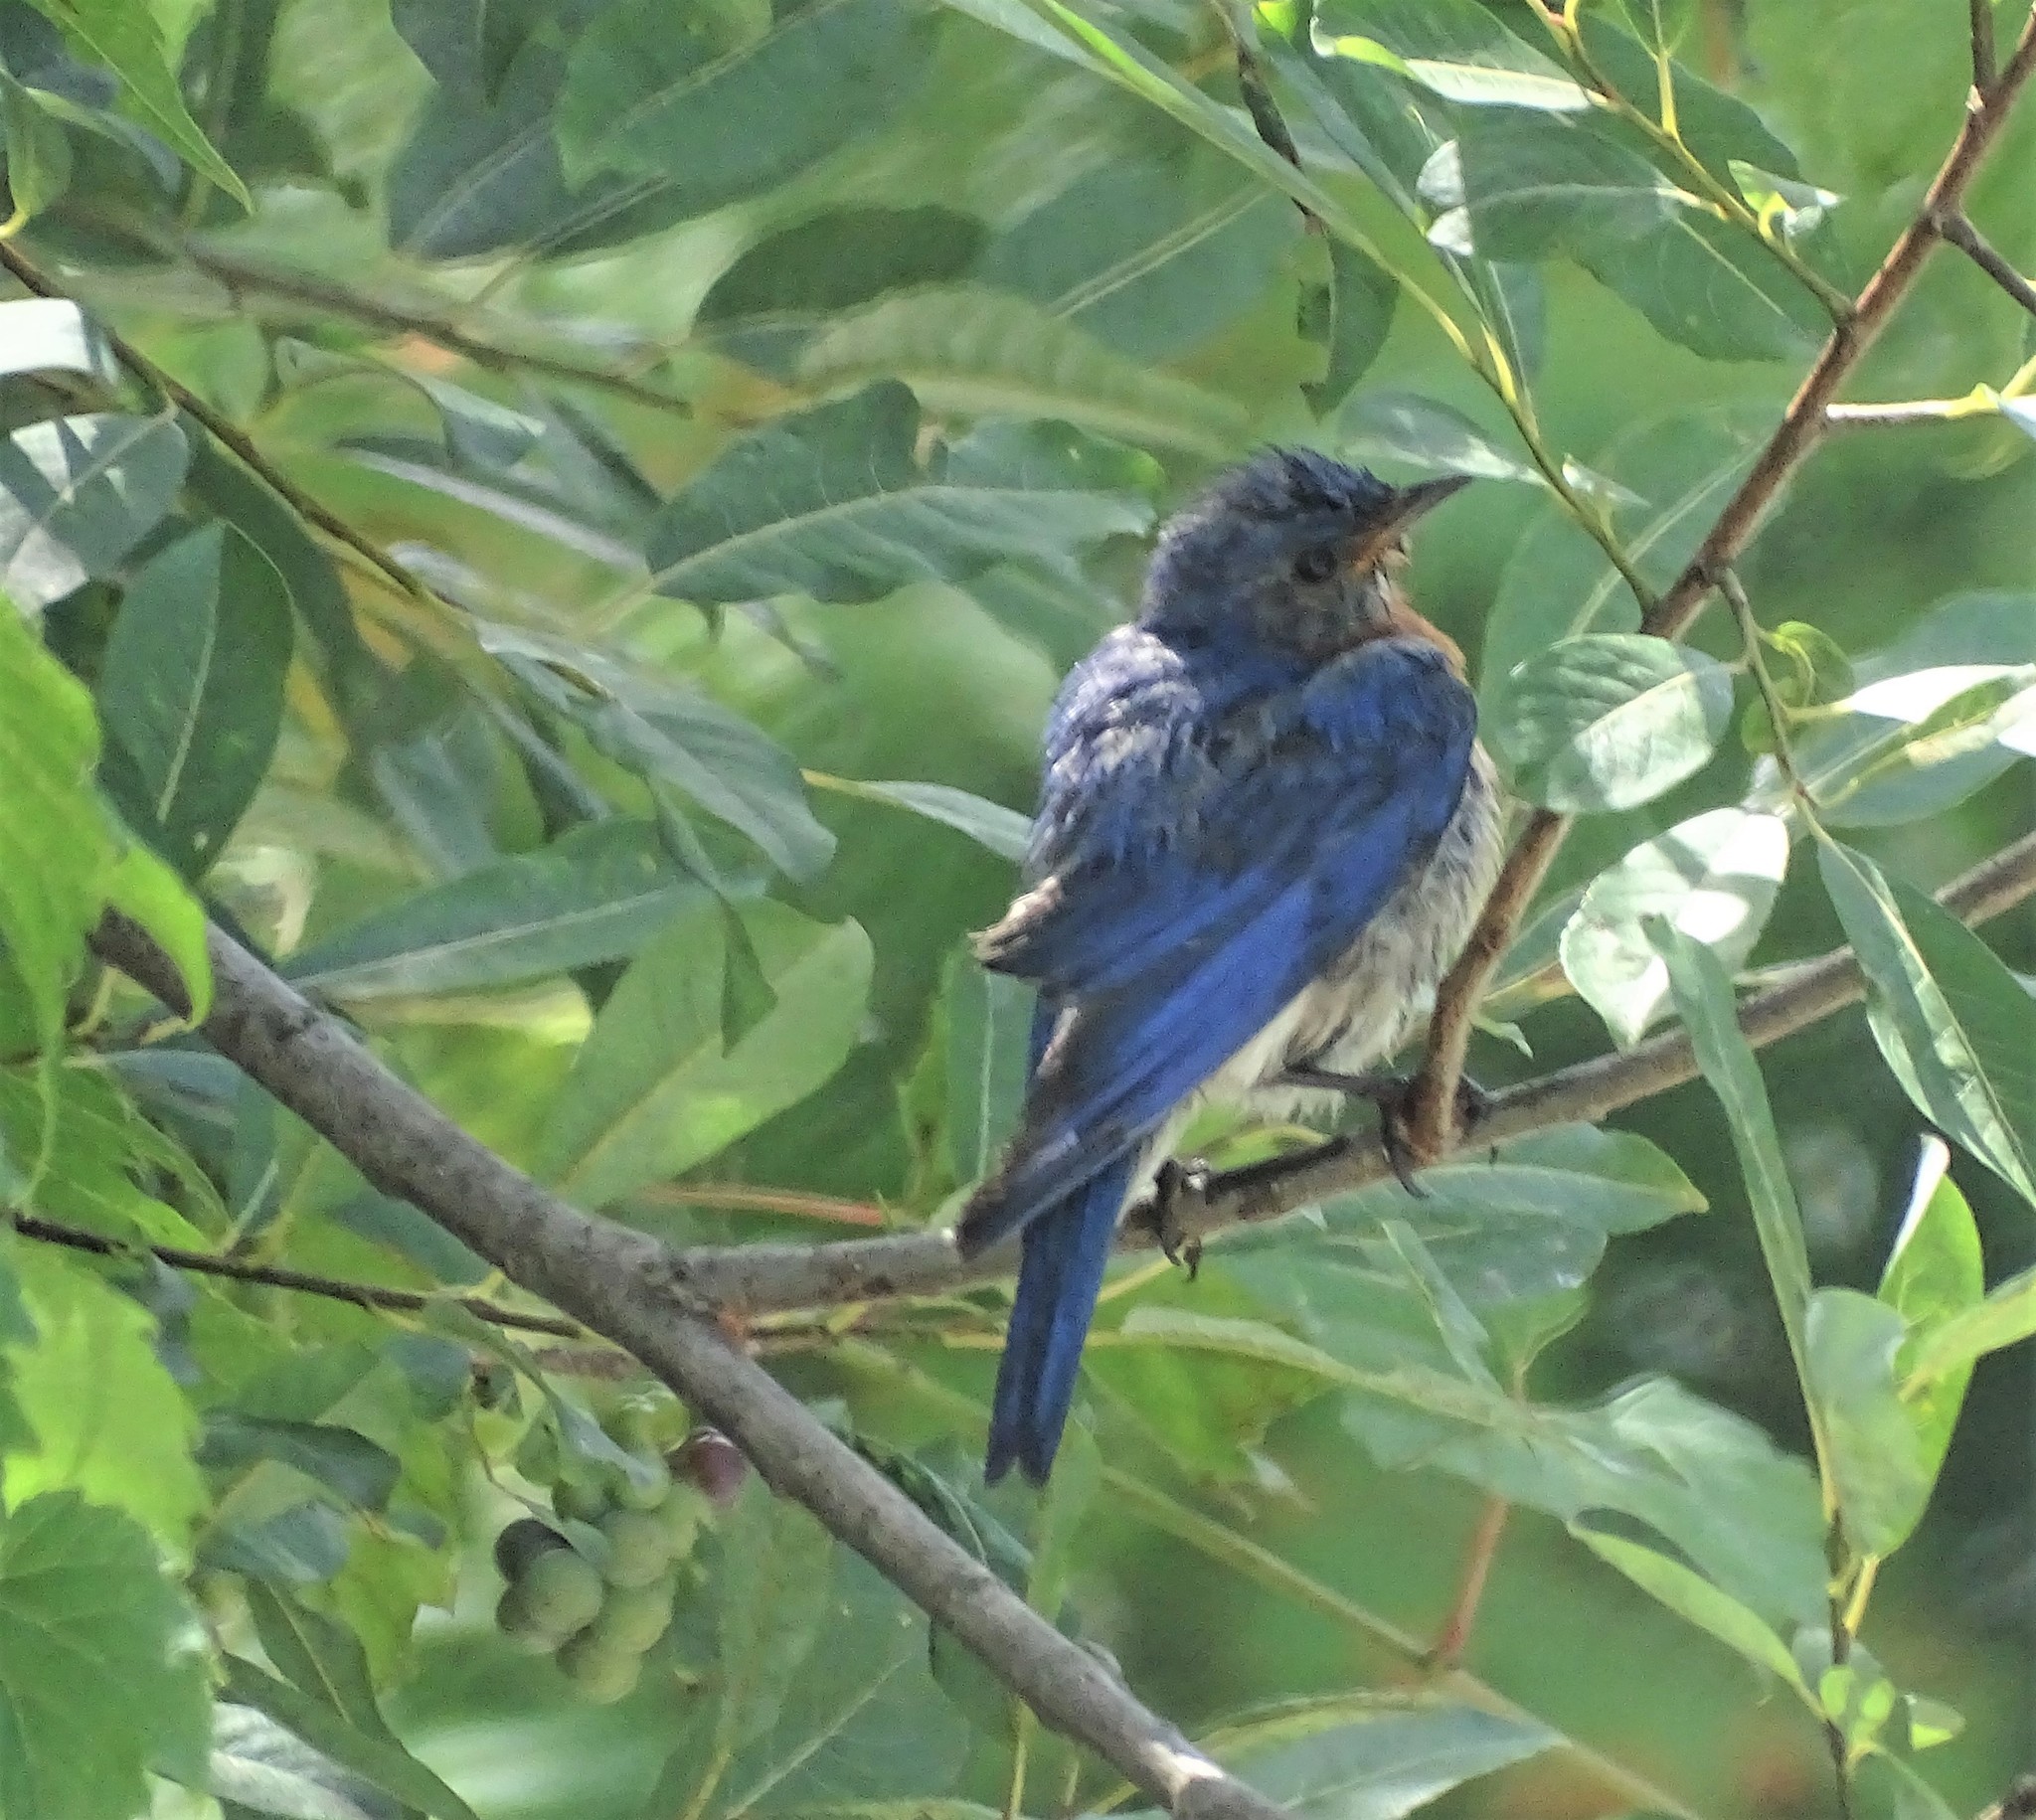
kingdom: Animalia
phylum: Chordata
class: Aves
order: Passeriformes
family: Turdidae
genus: Sialia
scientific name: Sialia sialis
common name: Eastern bluebird
